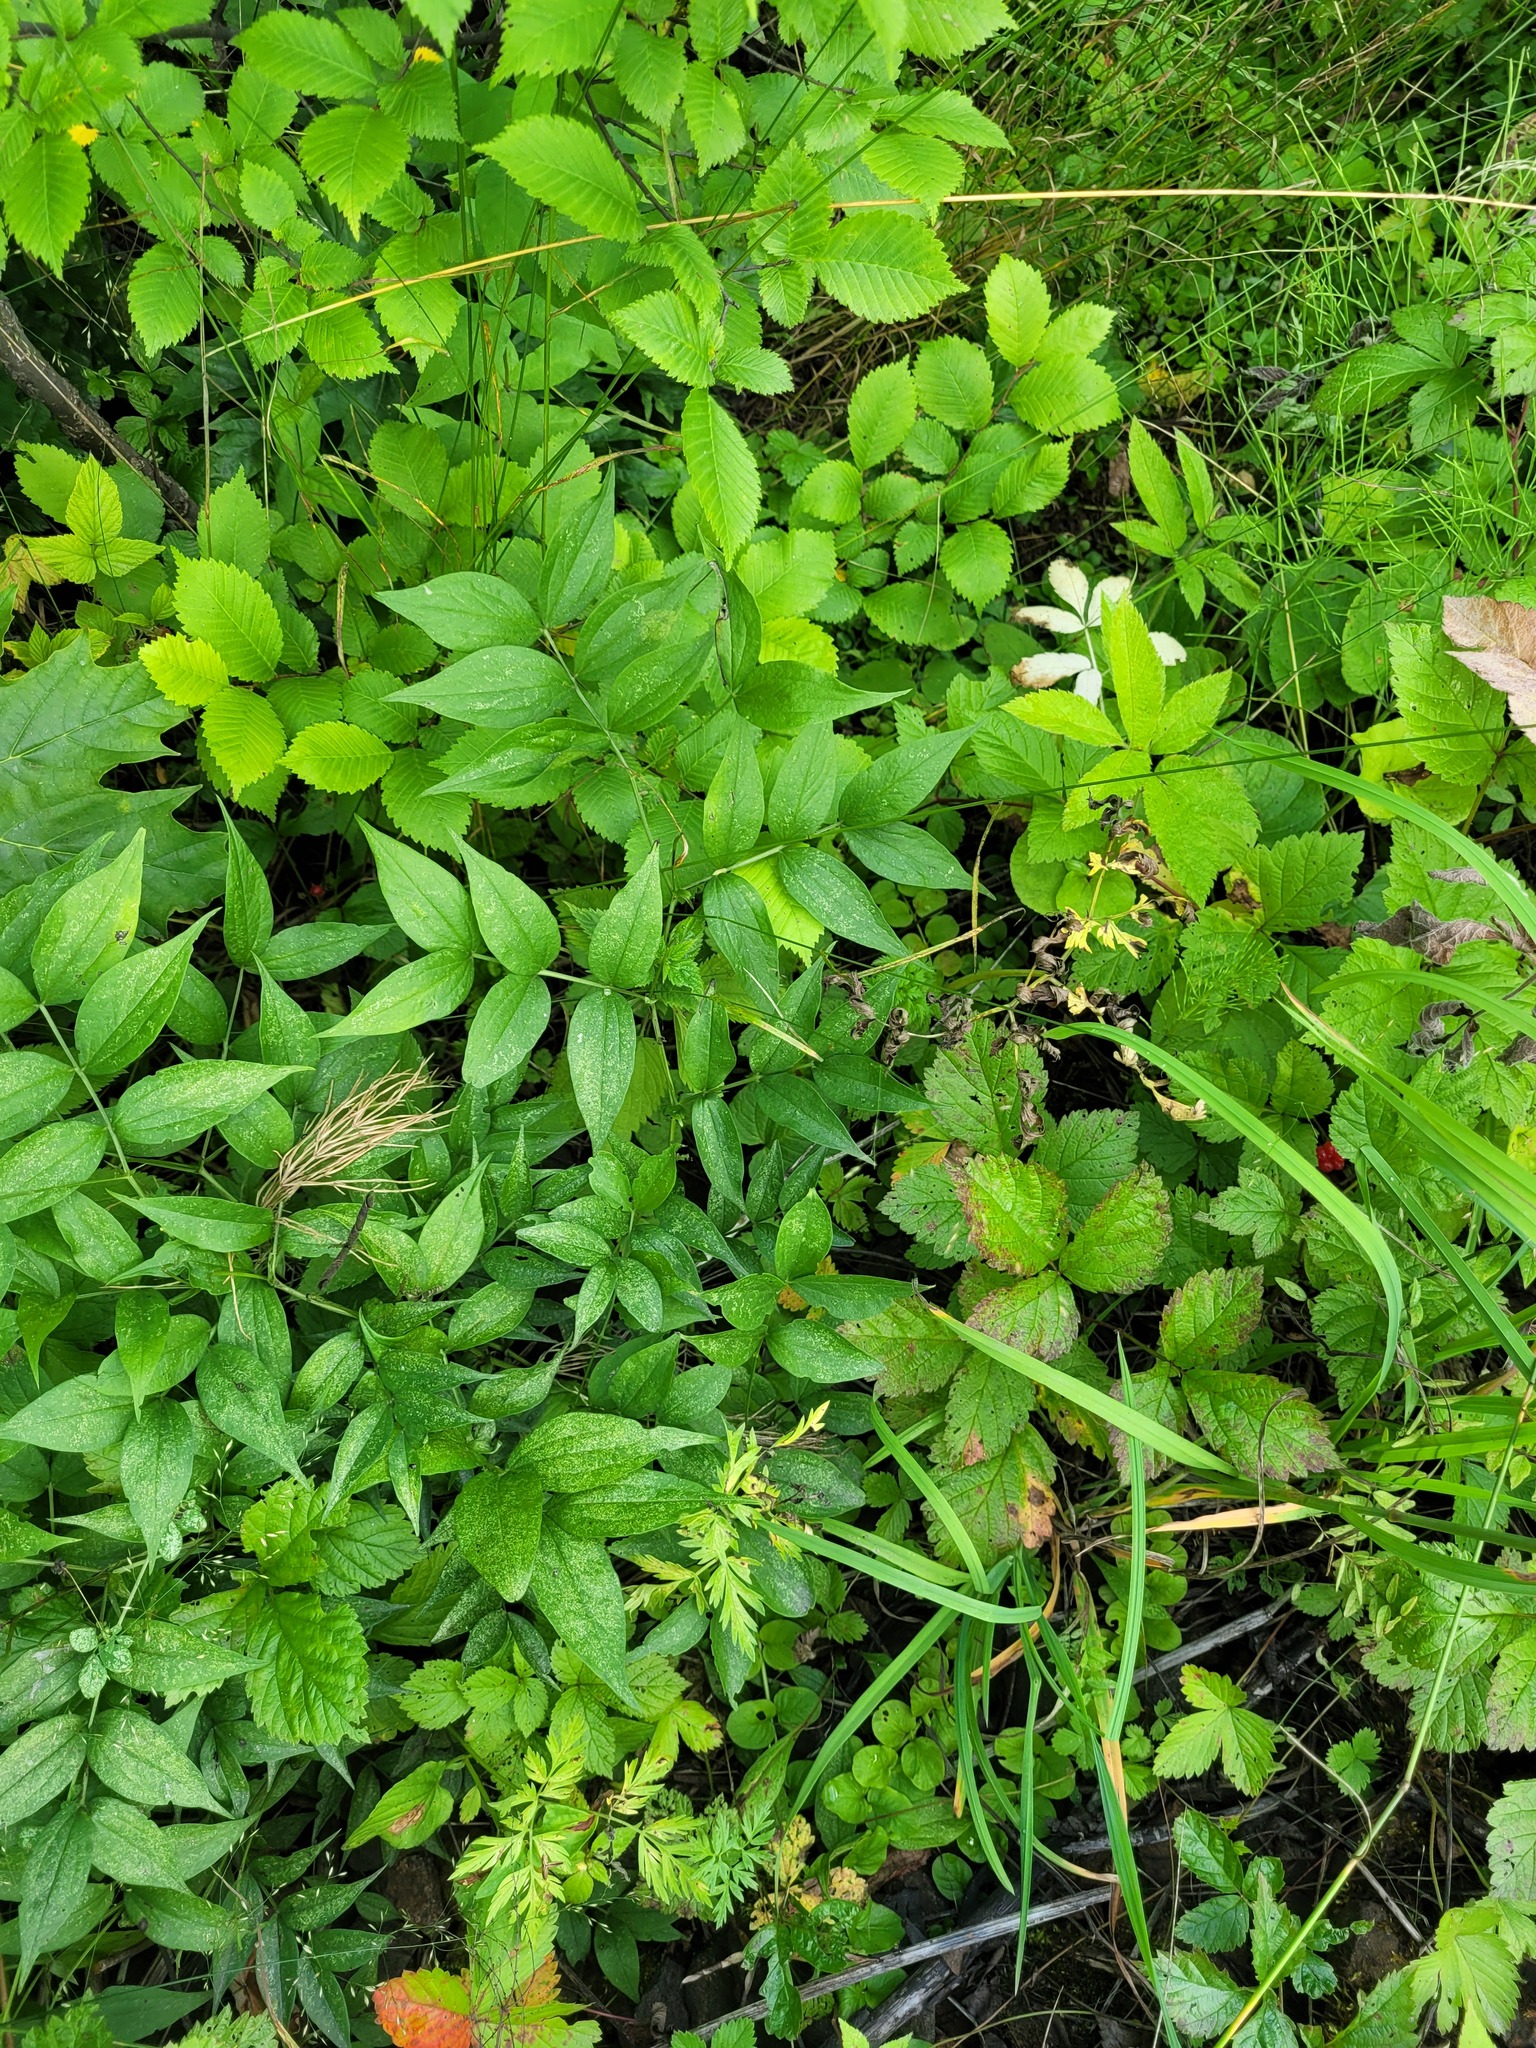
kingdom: Plantae
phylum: Tracheophyta
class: Magnoliopsida
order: Fabales
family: Fabaceae
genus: Lathyrus
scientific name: Lathyrus vernus
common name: Spring pea
